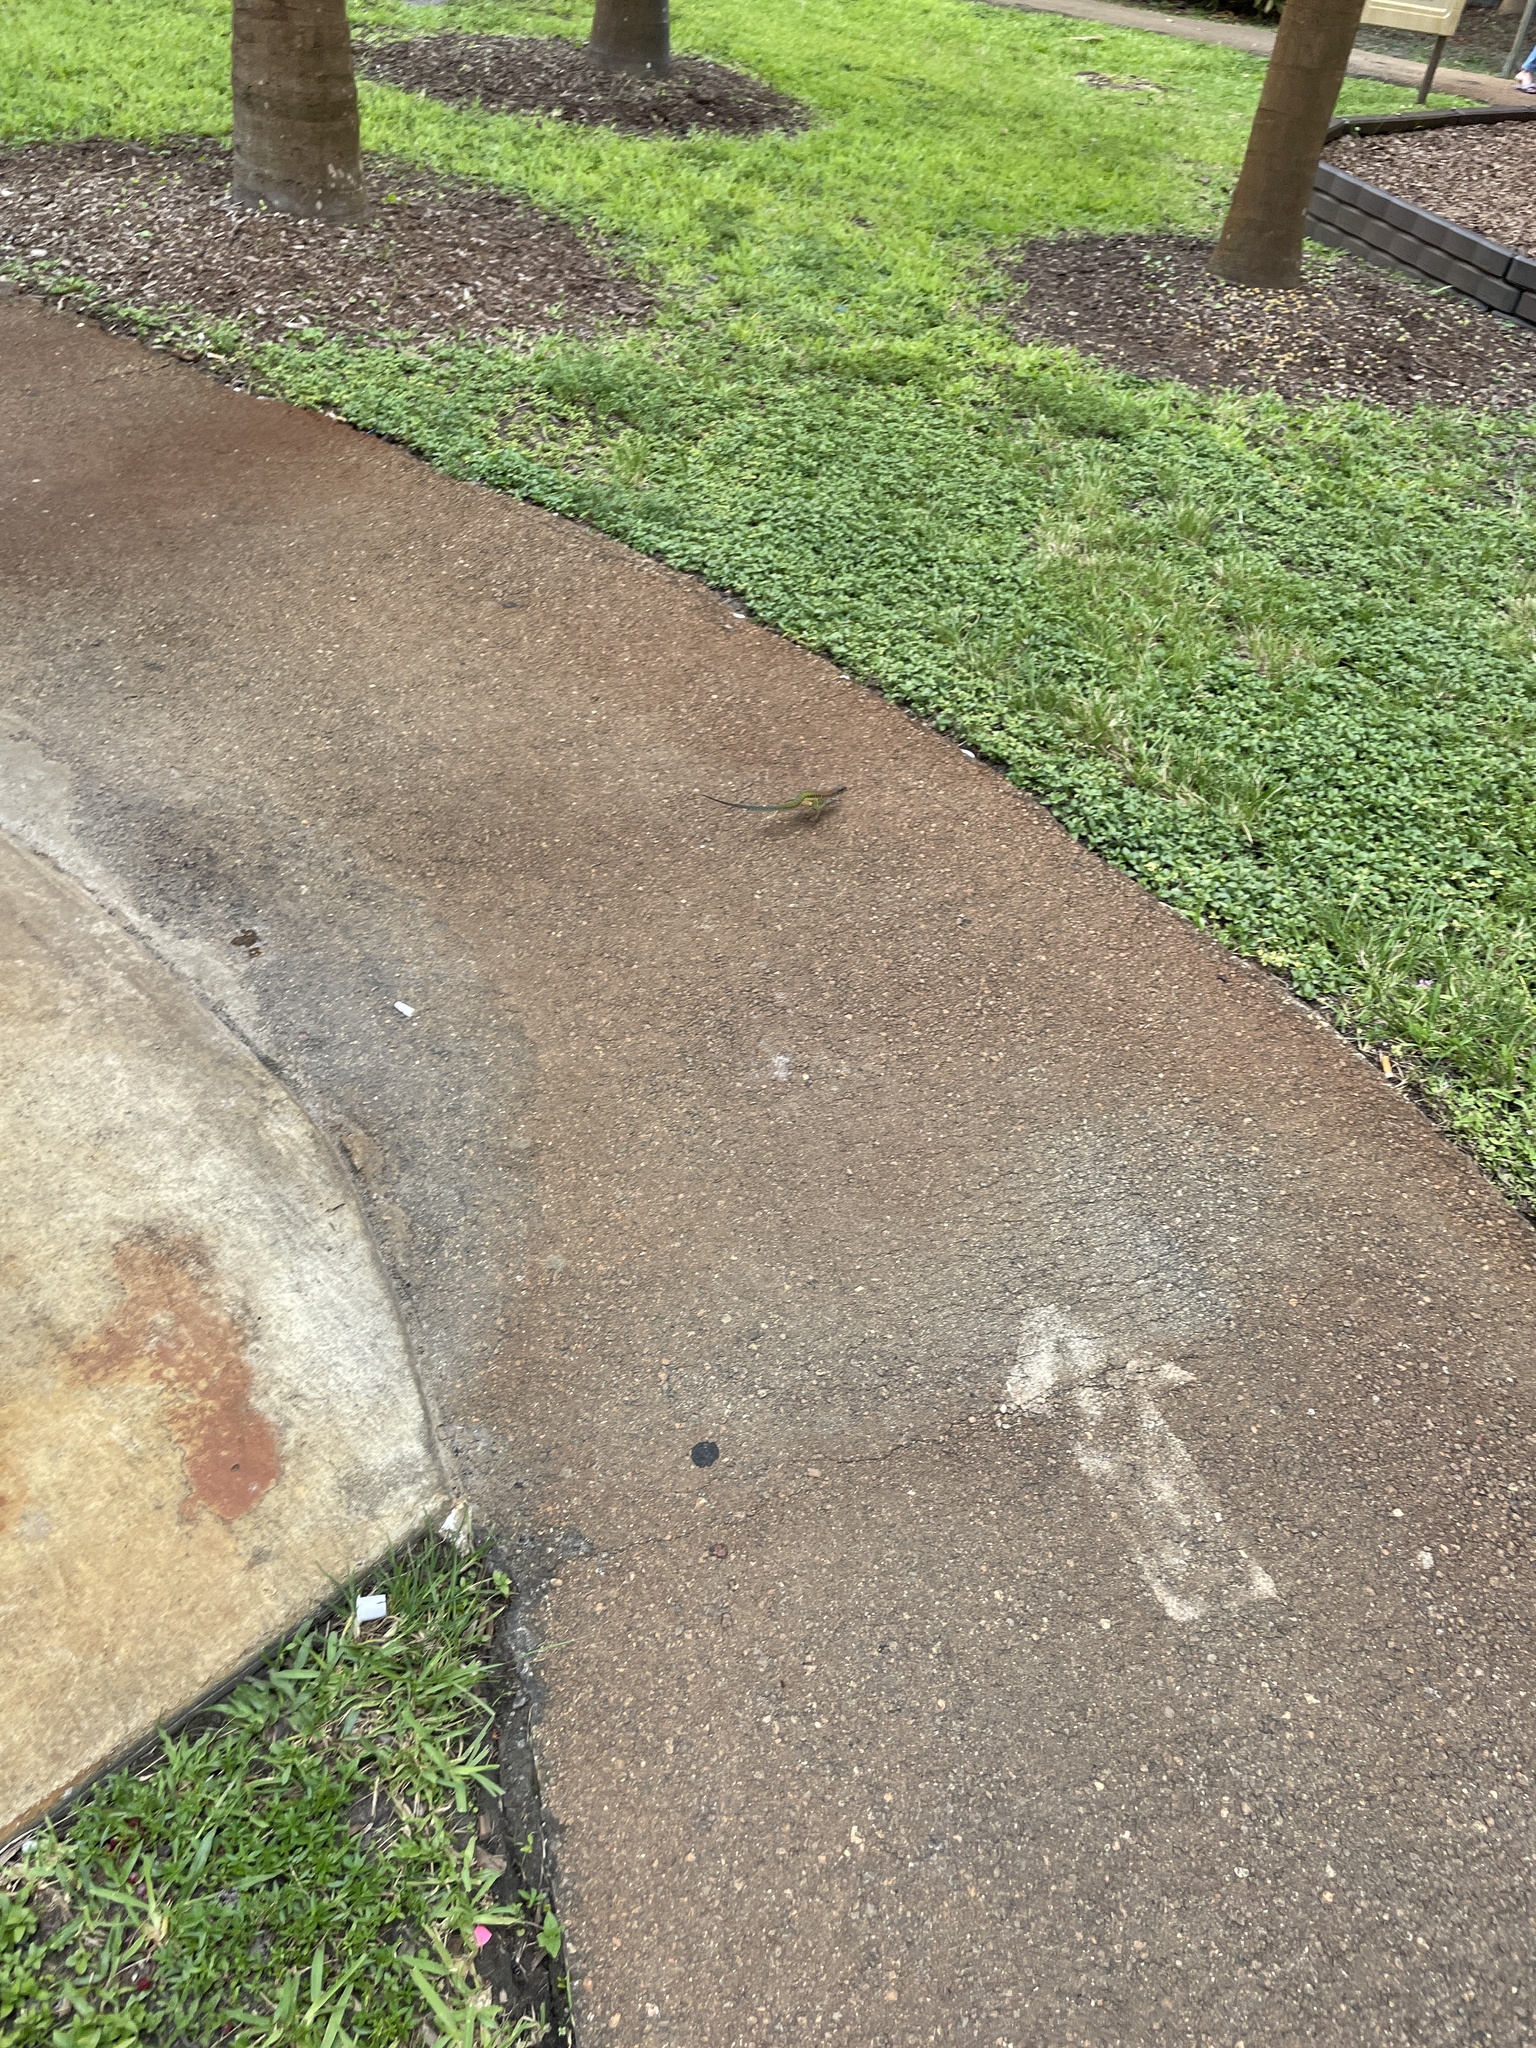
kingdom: Animalia
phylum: Chordata
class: Squamata
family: Teiidae
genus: Ameiva
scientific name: Ameiva ameiva
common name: Giant ameiva
